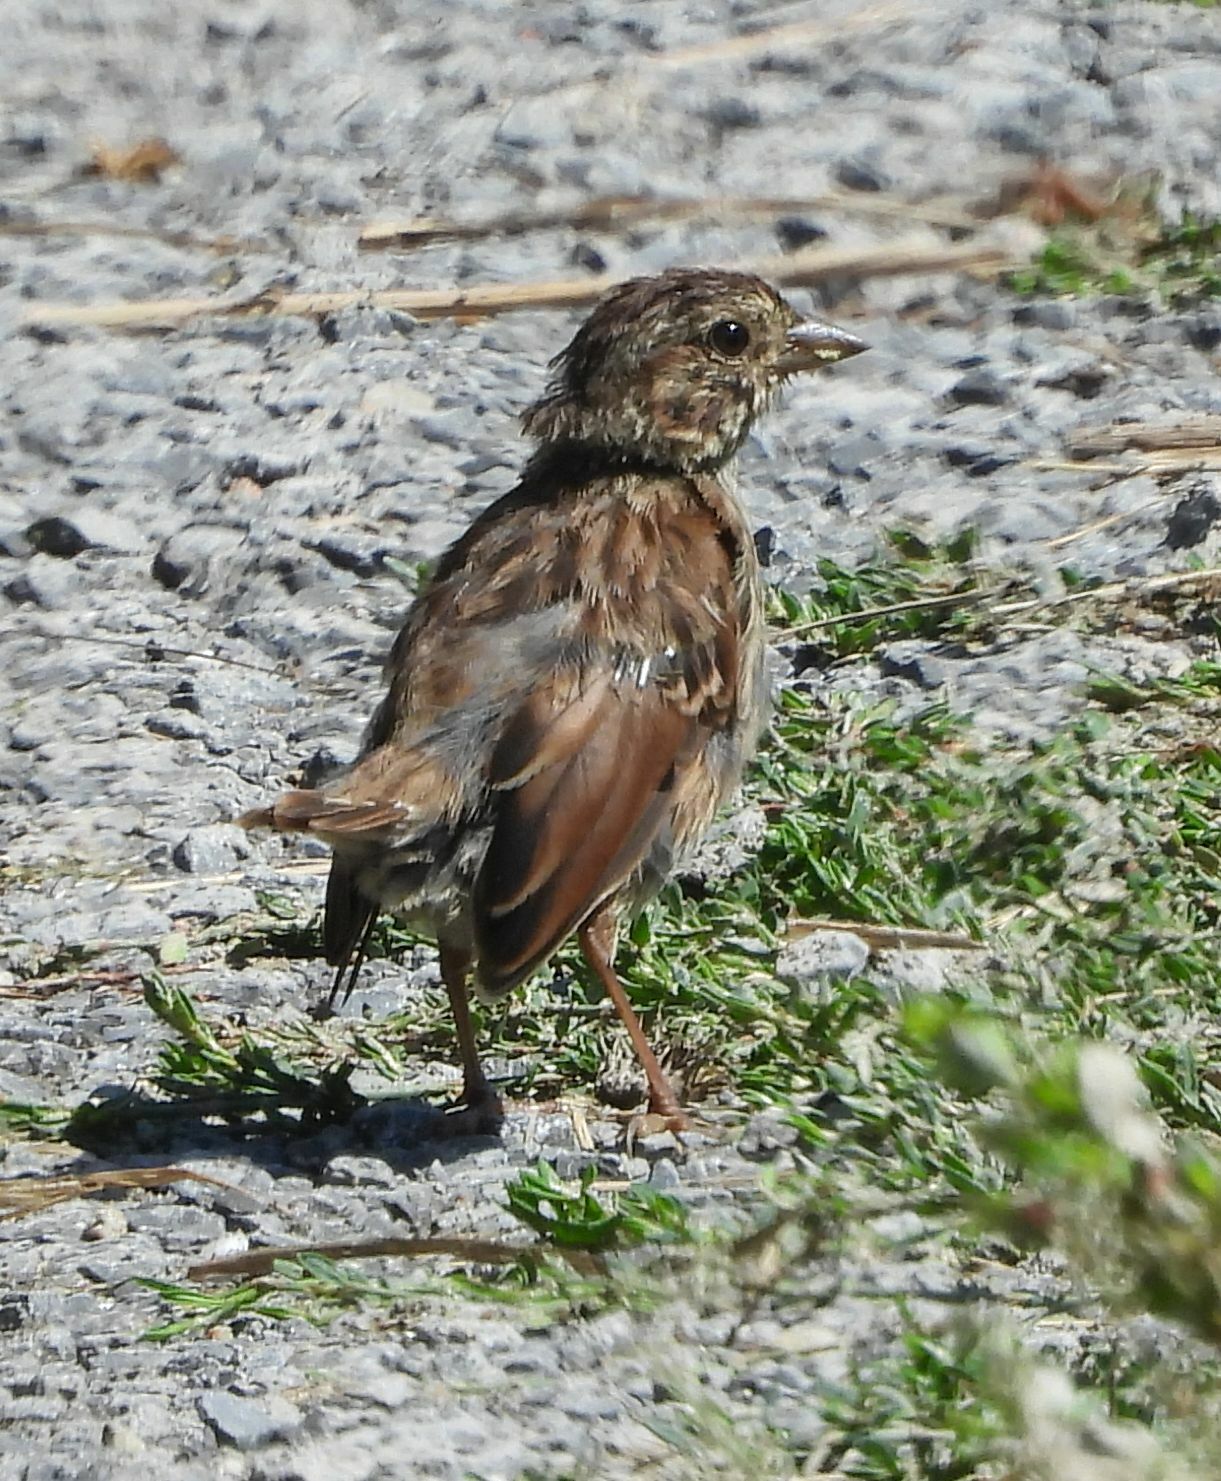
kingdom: Animalia
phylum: Chordata
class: Aves
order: Passeriformes
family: Passerellidae
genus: Melospiza
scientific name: Melospiza melodia
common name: Song sparrow
